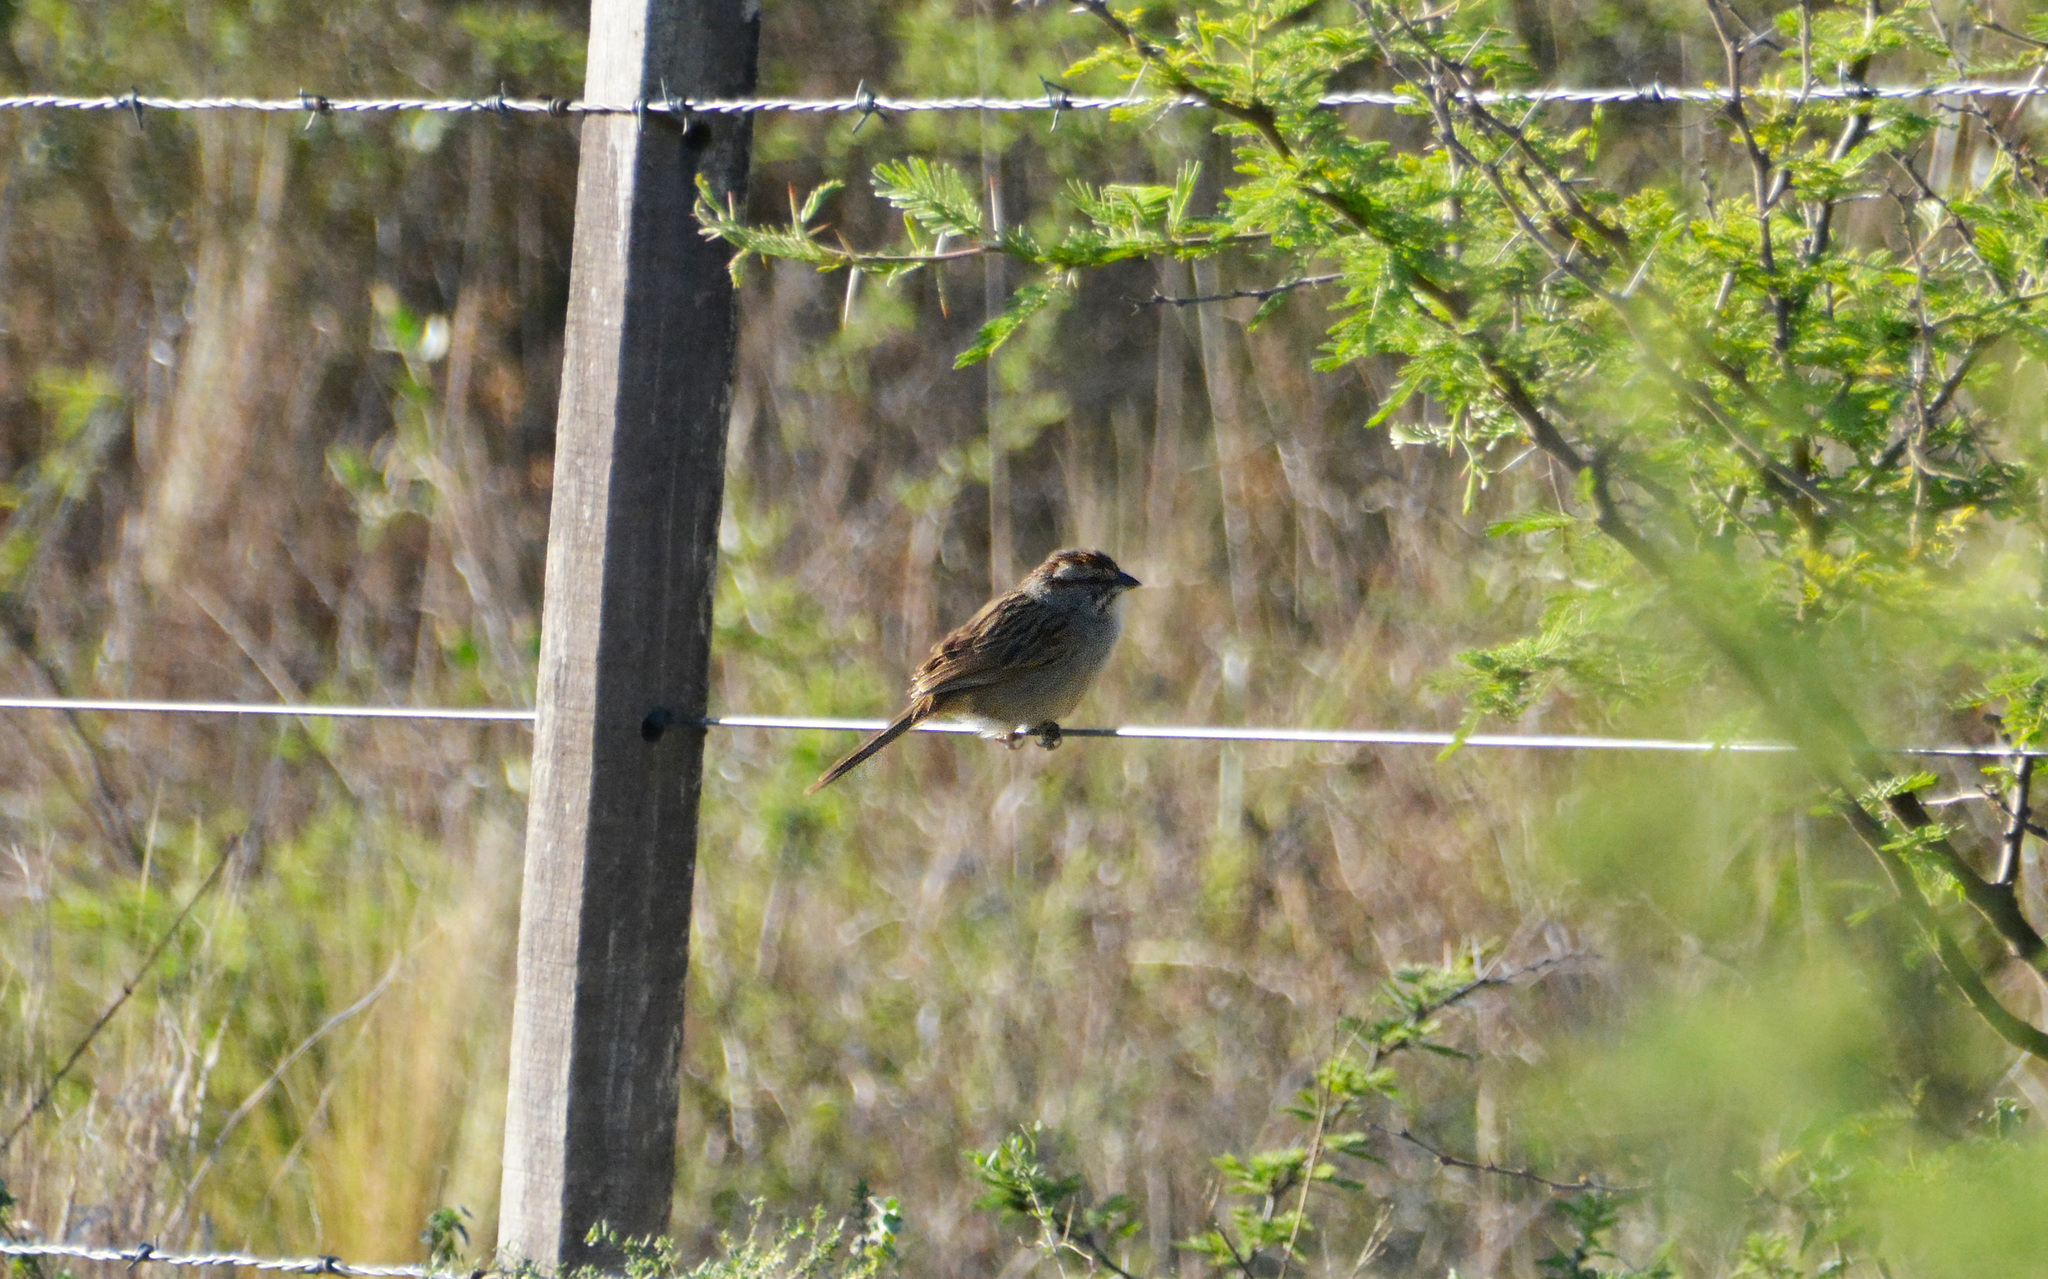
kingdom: Animalia
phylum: Chordata
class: Aves
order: Passeriformes
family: Passerellidae
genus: Rhynchospiza
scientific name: Rhynchospiza strigiceps
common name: Stripe-capped sparrow
